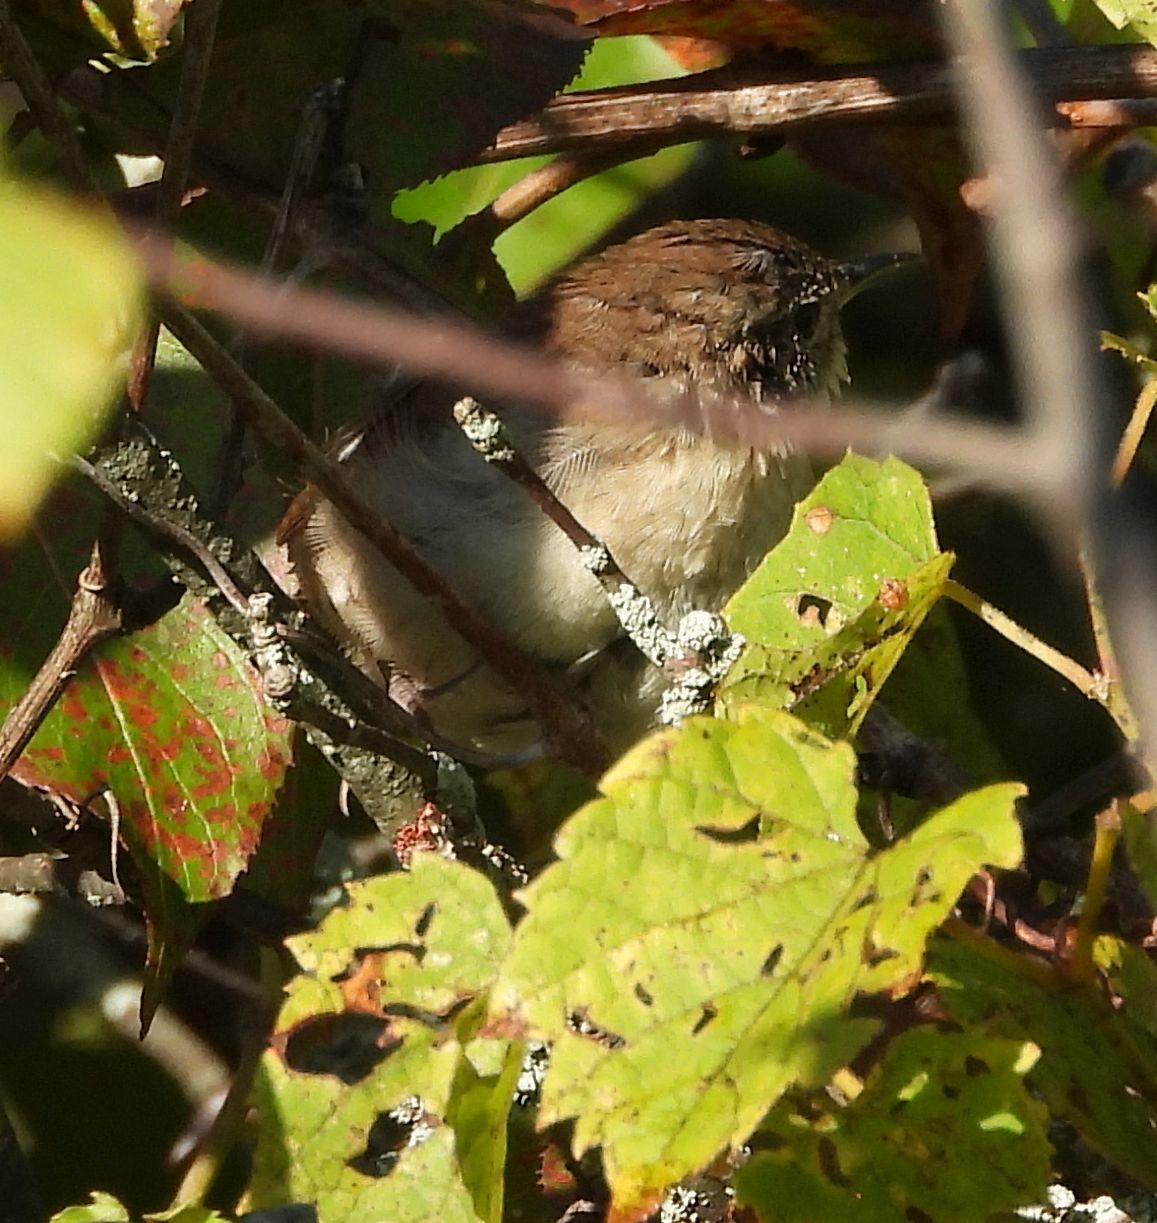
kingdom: Animalia
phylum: Chordata
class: Aves
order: Passeriformes
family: Troglodytidae
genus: Troglodytes
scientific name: Troglodytes aedon
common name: House wren
